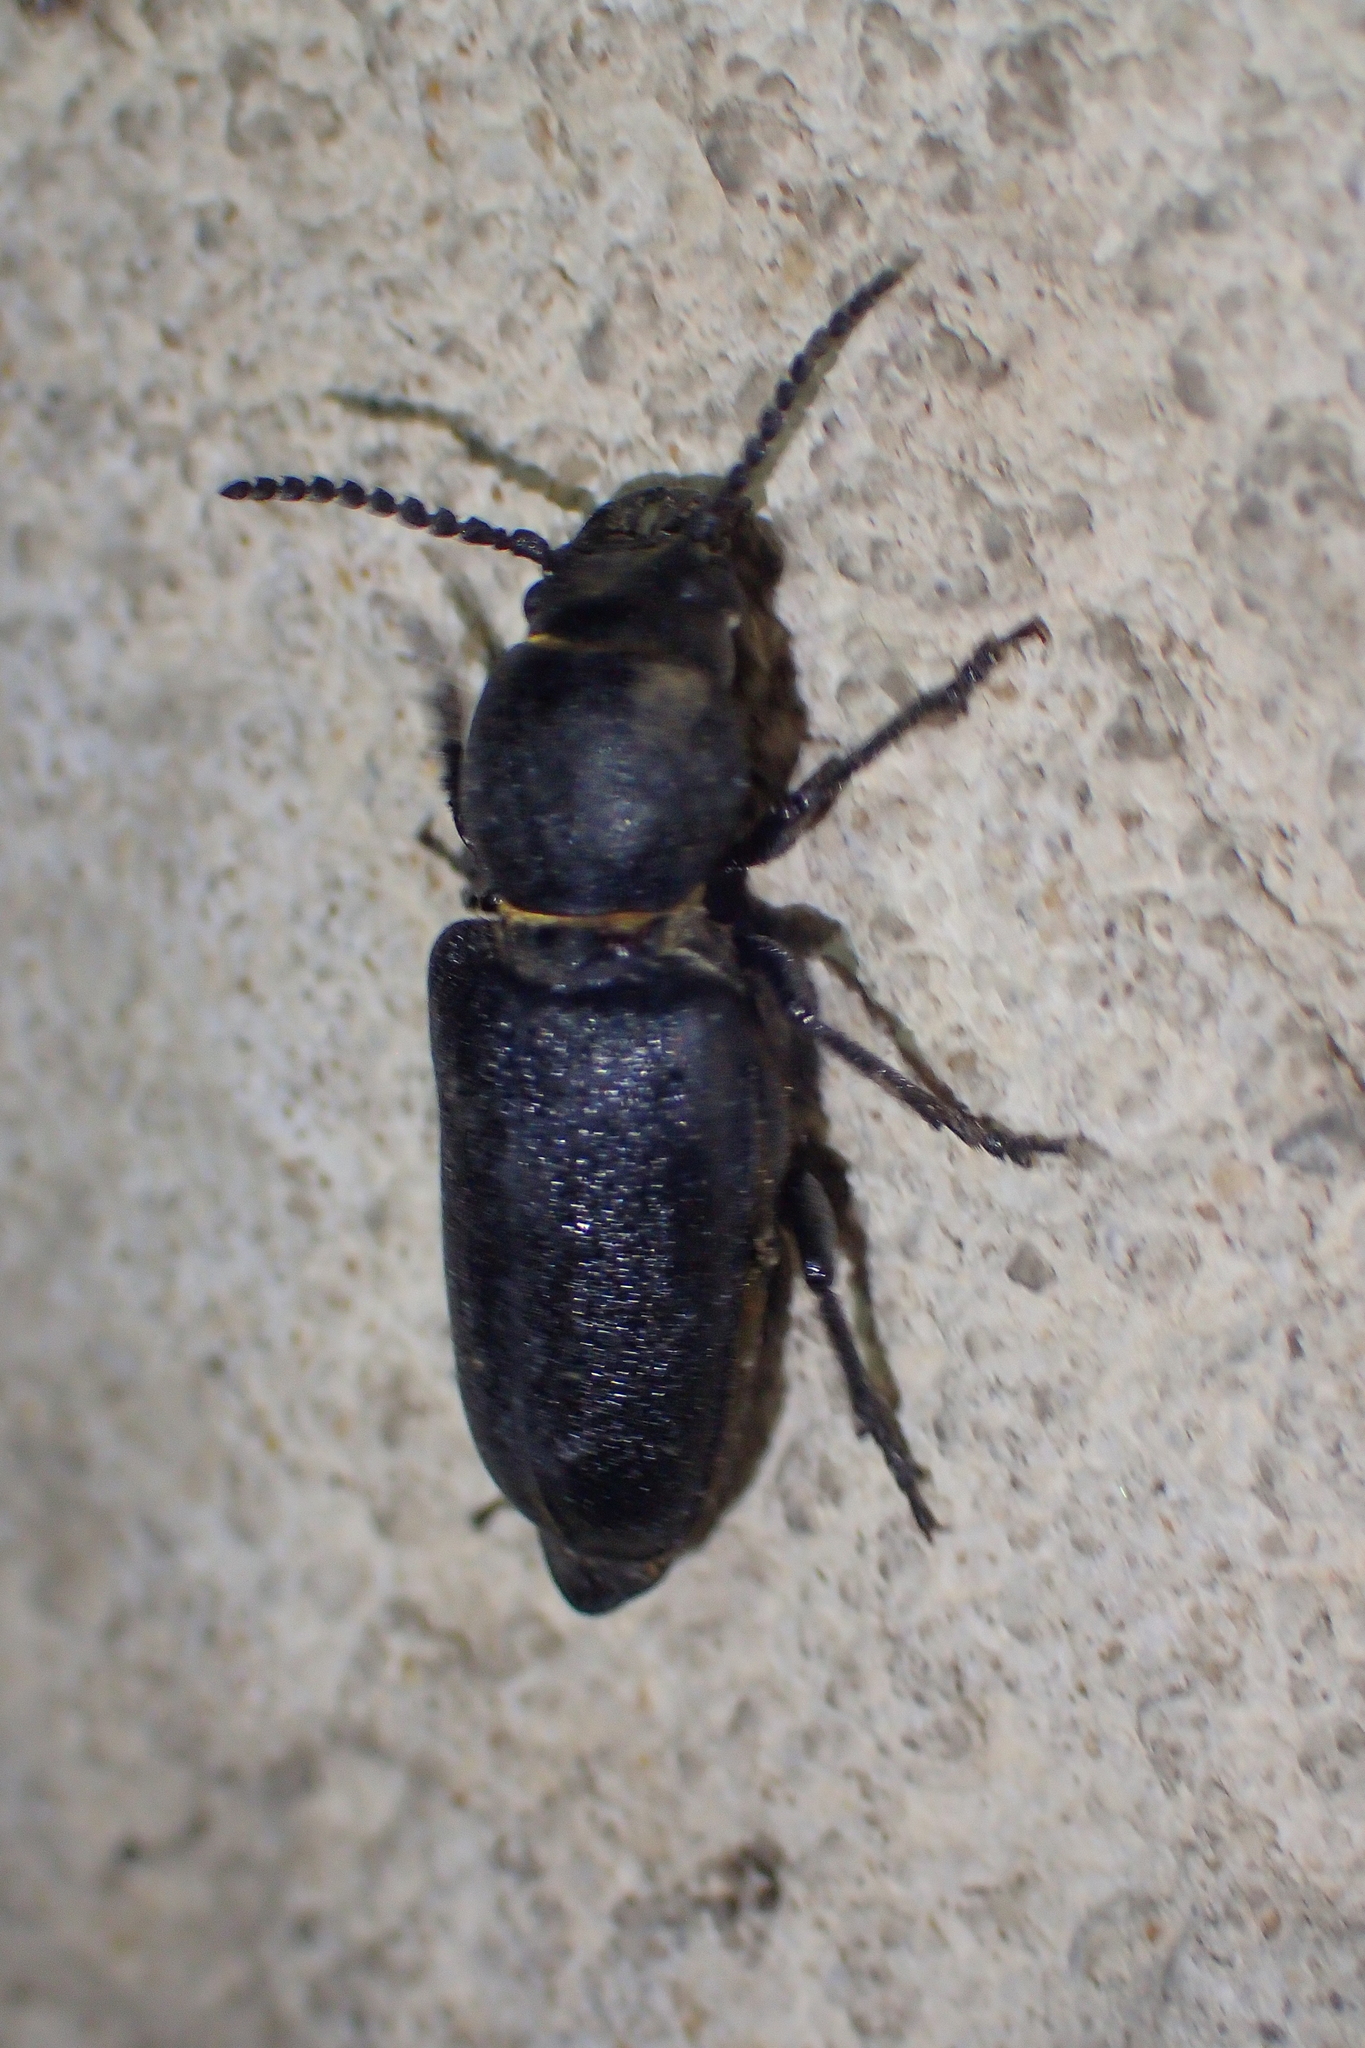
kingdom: Animalia
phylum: Arthropoda
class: Insecta
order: Coleoptera
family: Cerambycidae
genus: Spondylis
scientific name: Spondylis buprestoides
